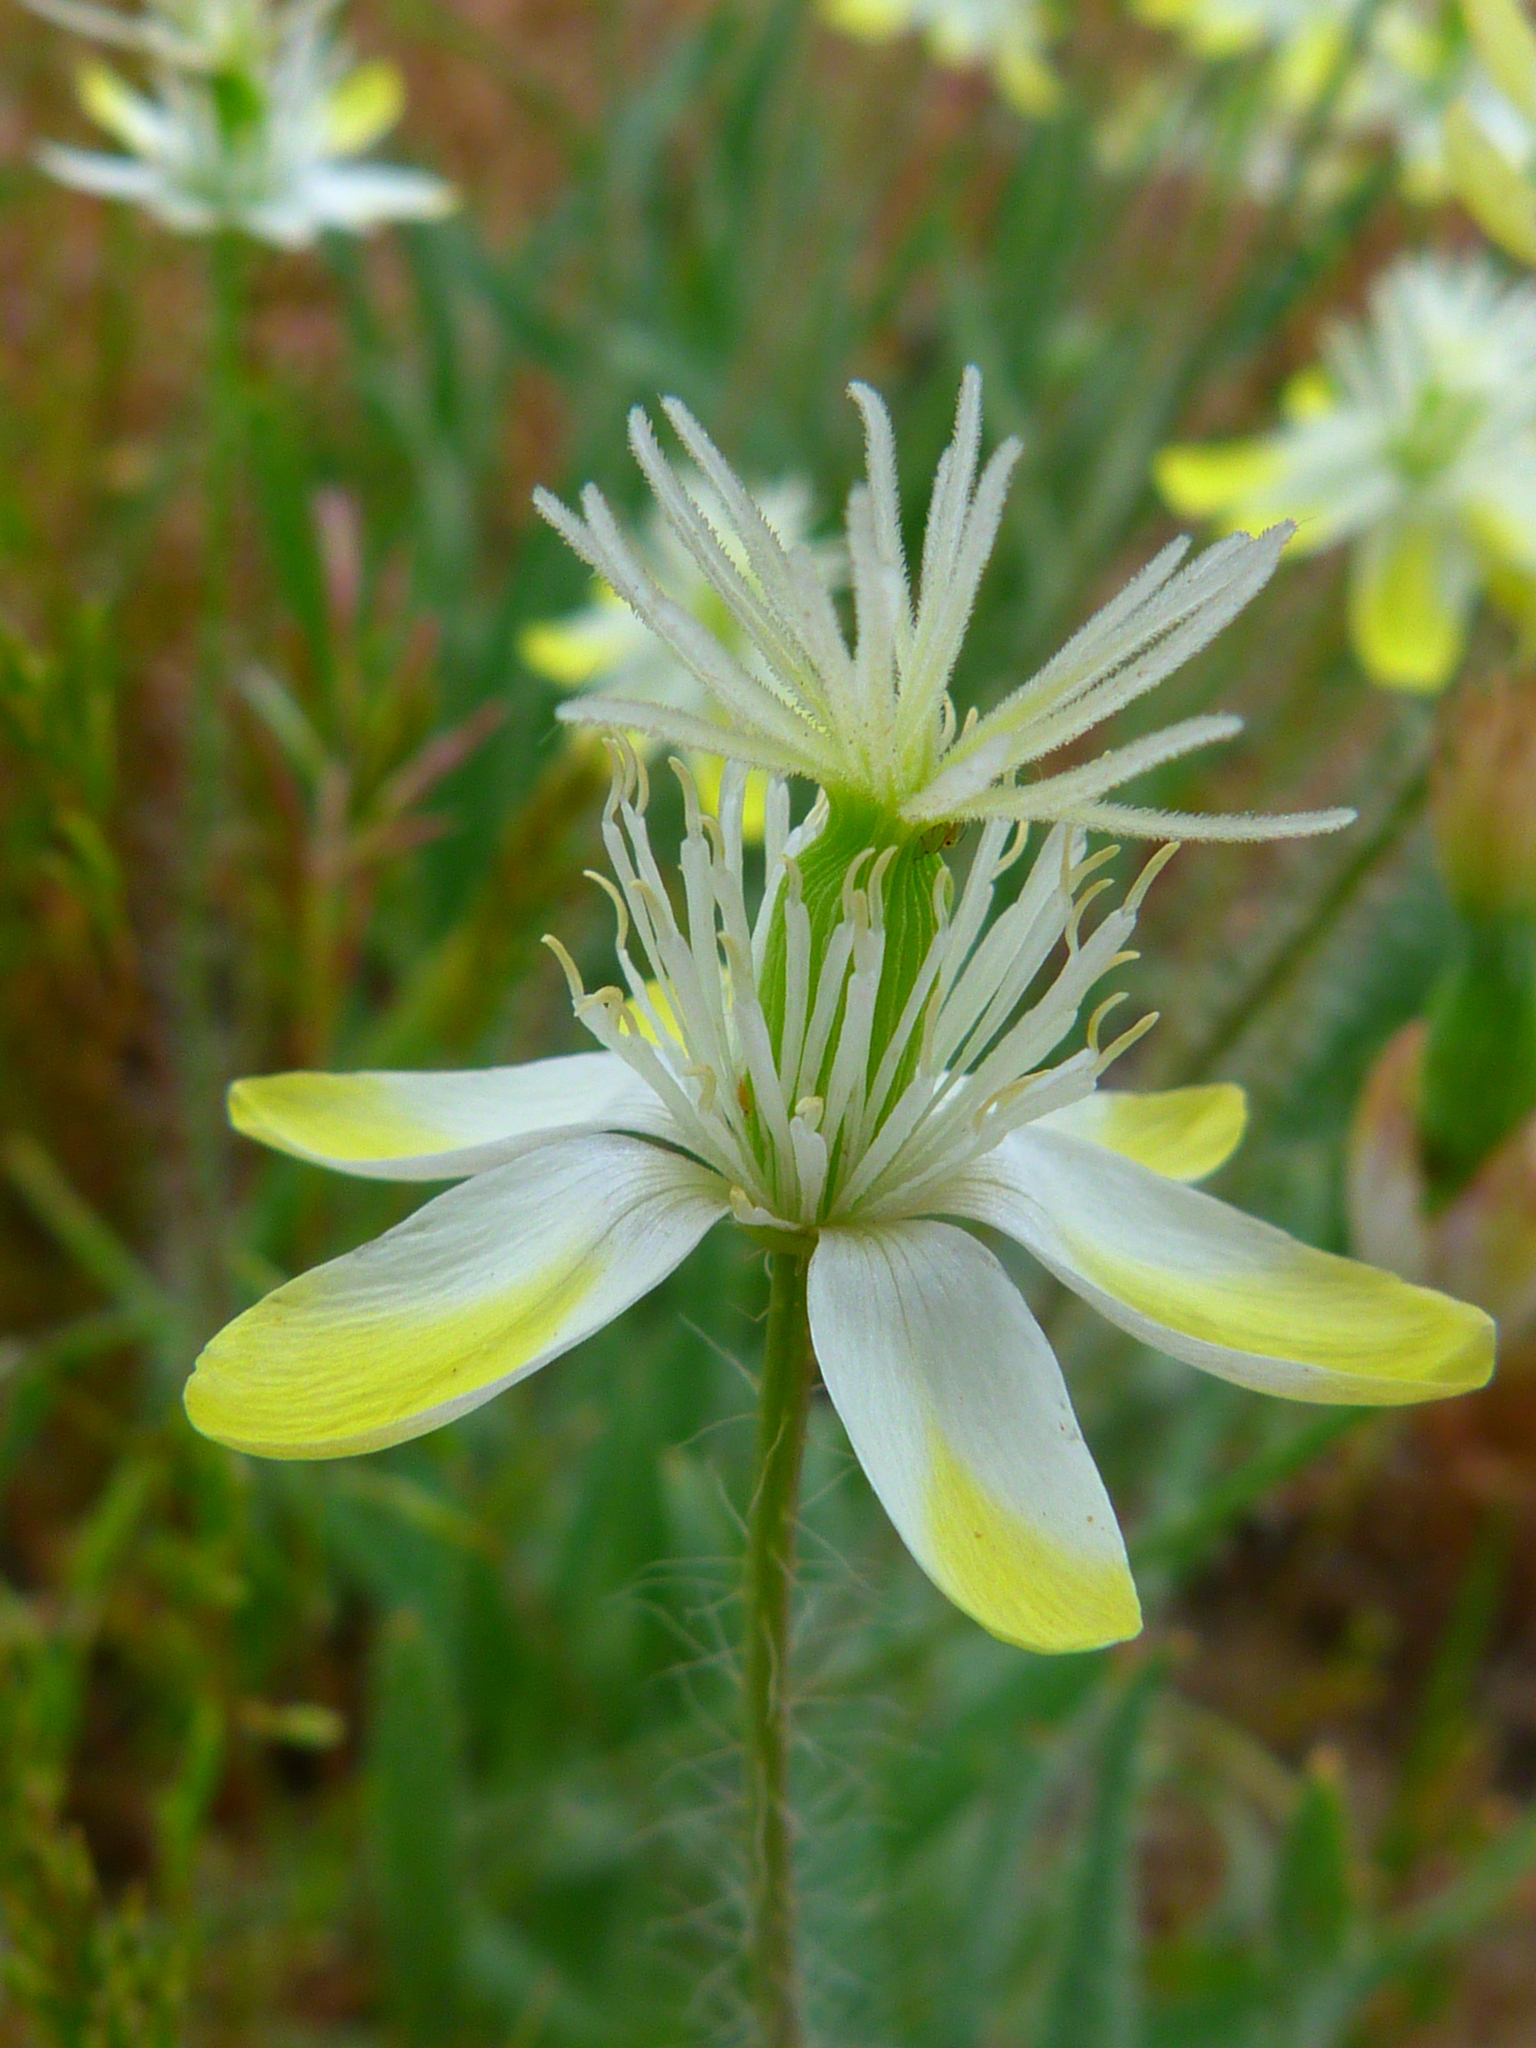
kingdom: Plantae
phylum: Tracheophyta
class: Magnoliopsida
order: Ranunculales
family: Papaveraceae
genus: Platystemon
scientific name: Platystemon californicus
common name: Cream-cups
